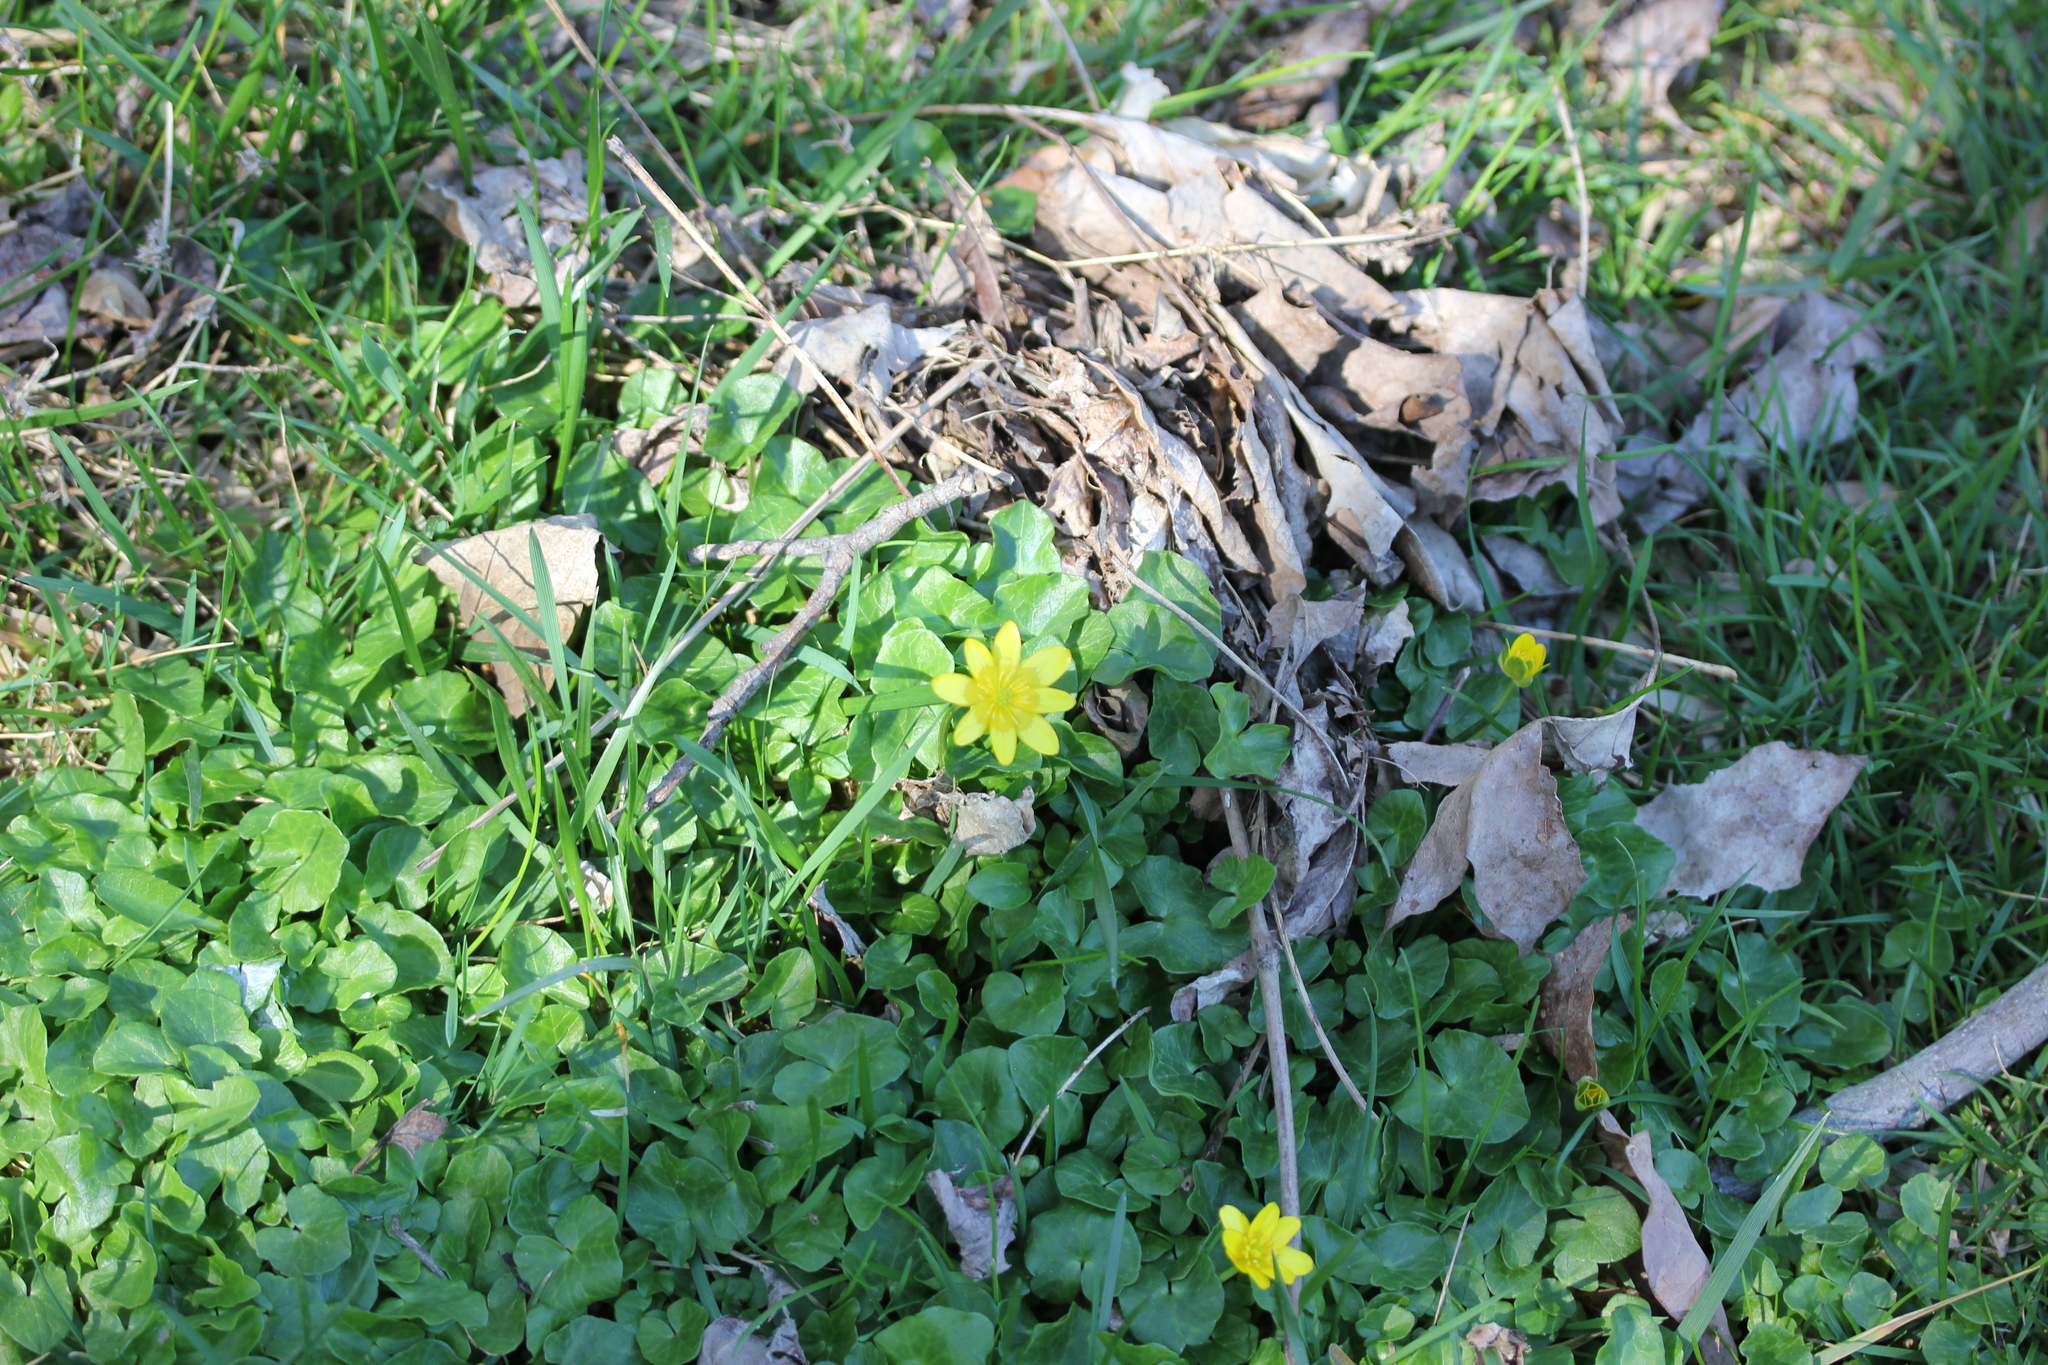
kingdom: Plantae
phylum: Tracheophyta
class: Magnoliopsida
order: Ranunculales
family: Ranunculaceae
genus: Ficaria
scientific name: Ficaria verna
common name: Lesser celandine
